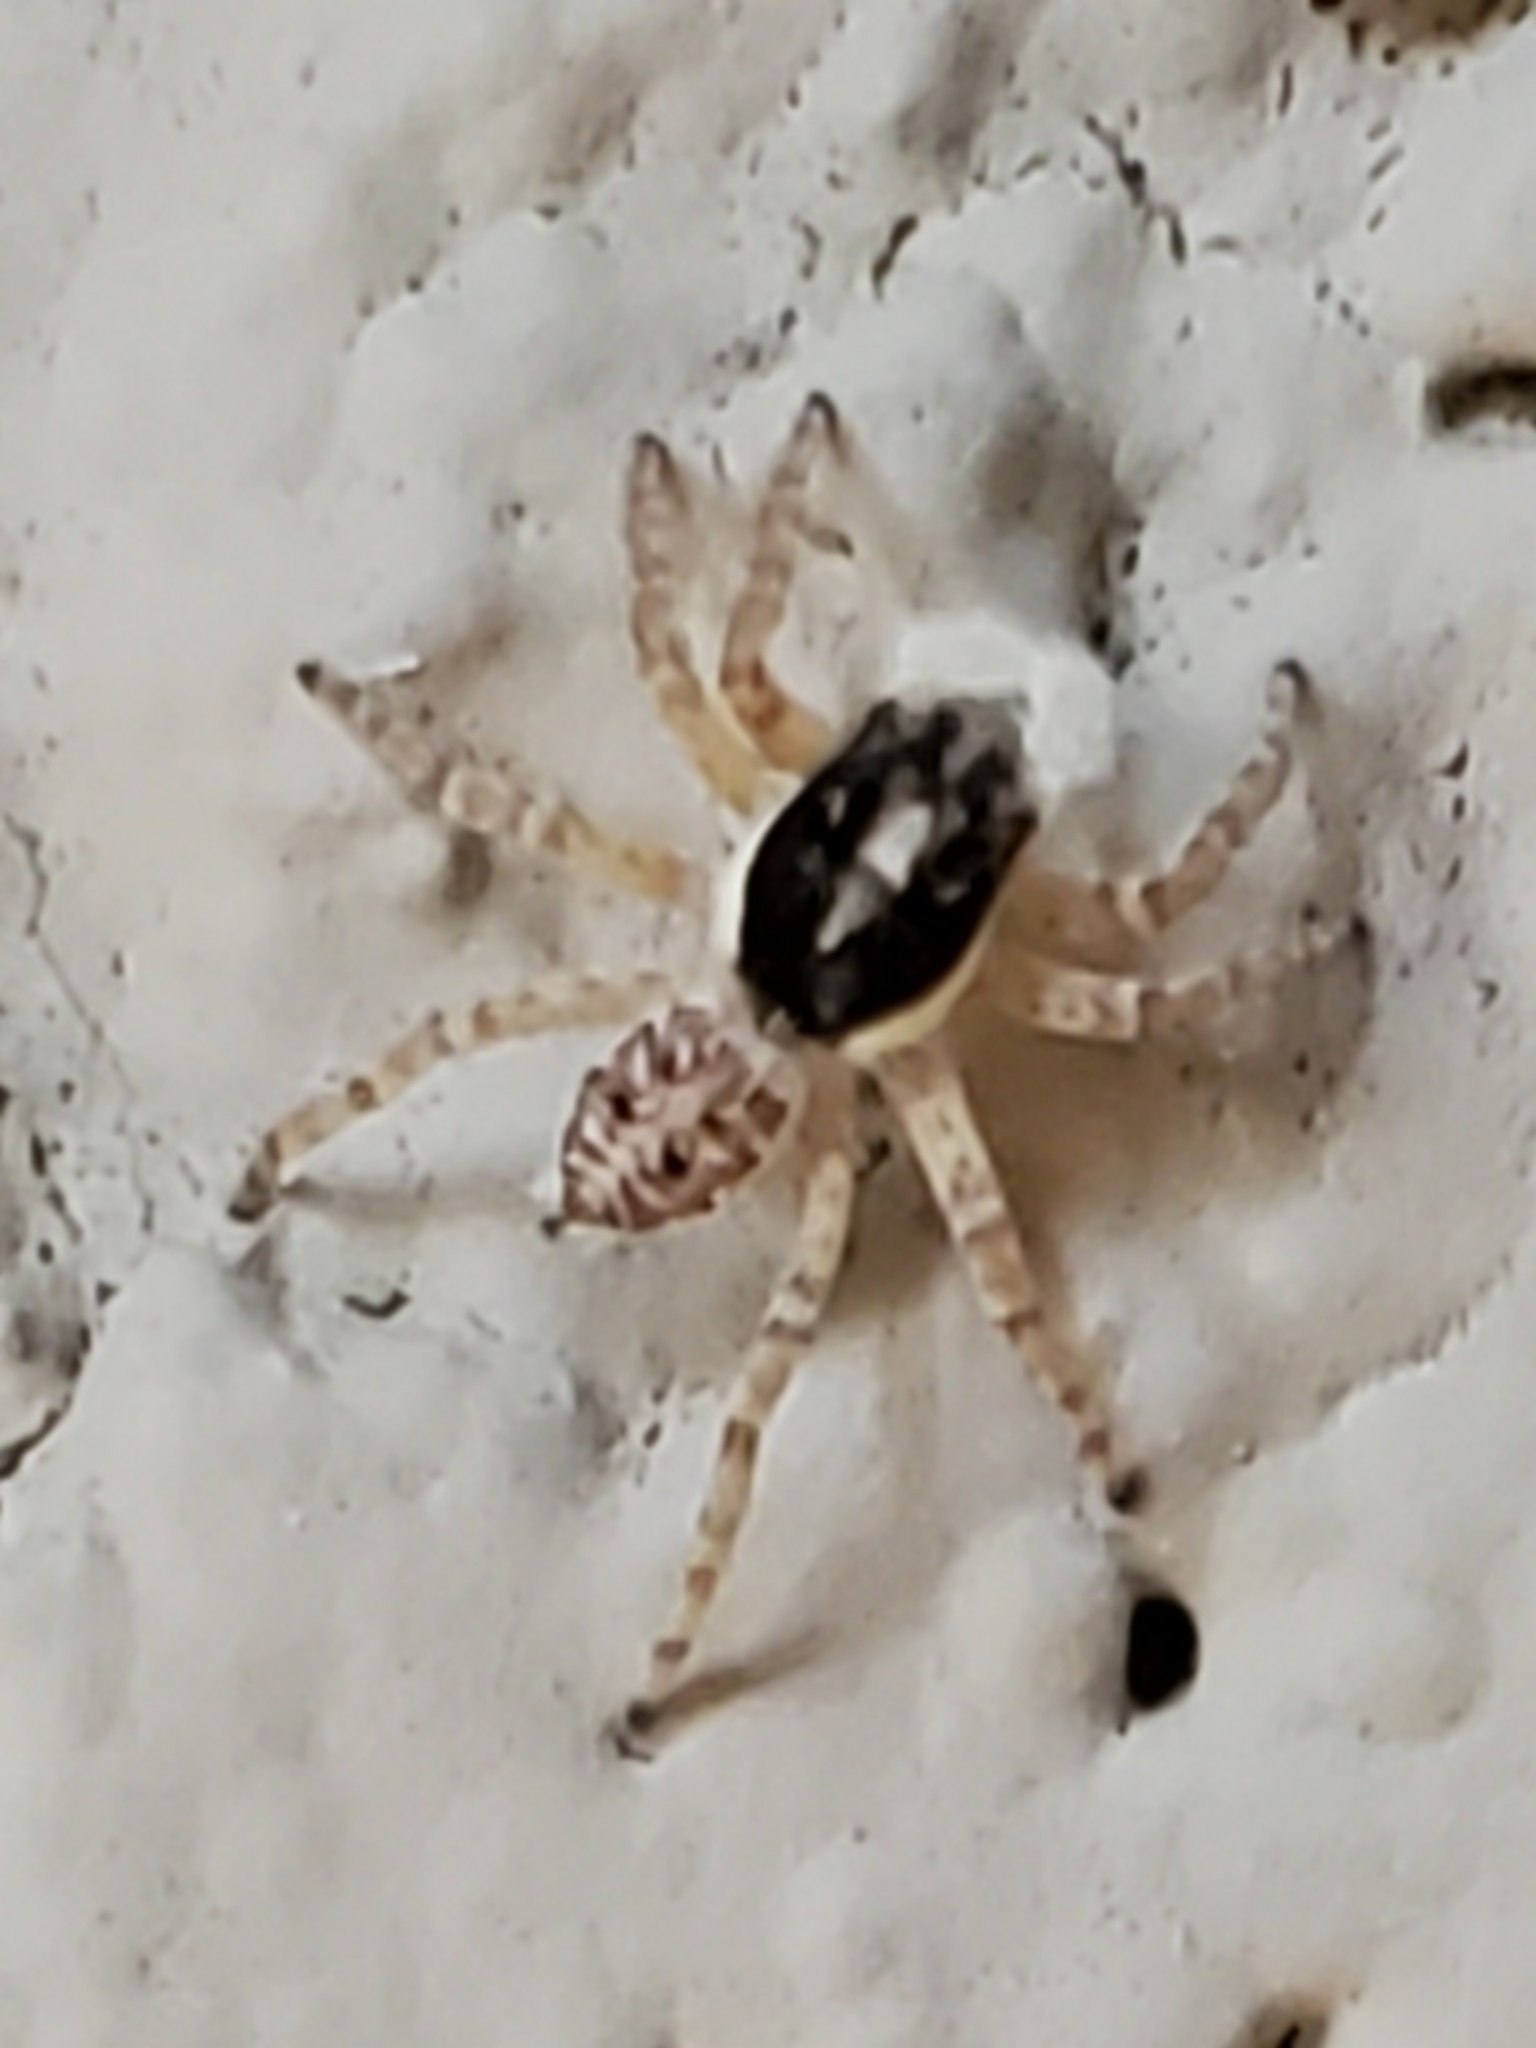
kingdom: Animalia
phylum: Arthropoda
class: Arachnida
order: Araneae
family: Salticidae
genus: Menemerus
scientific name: Menemerus semilimbatus
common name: Jumping spider
